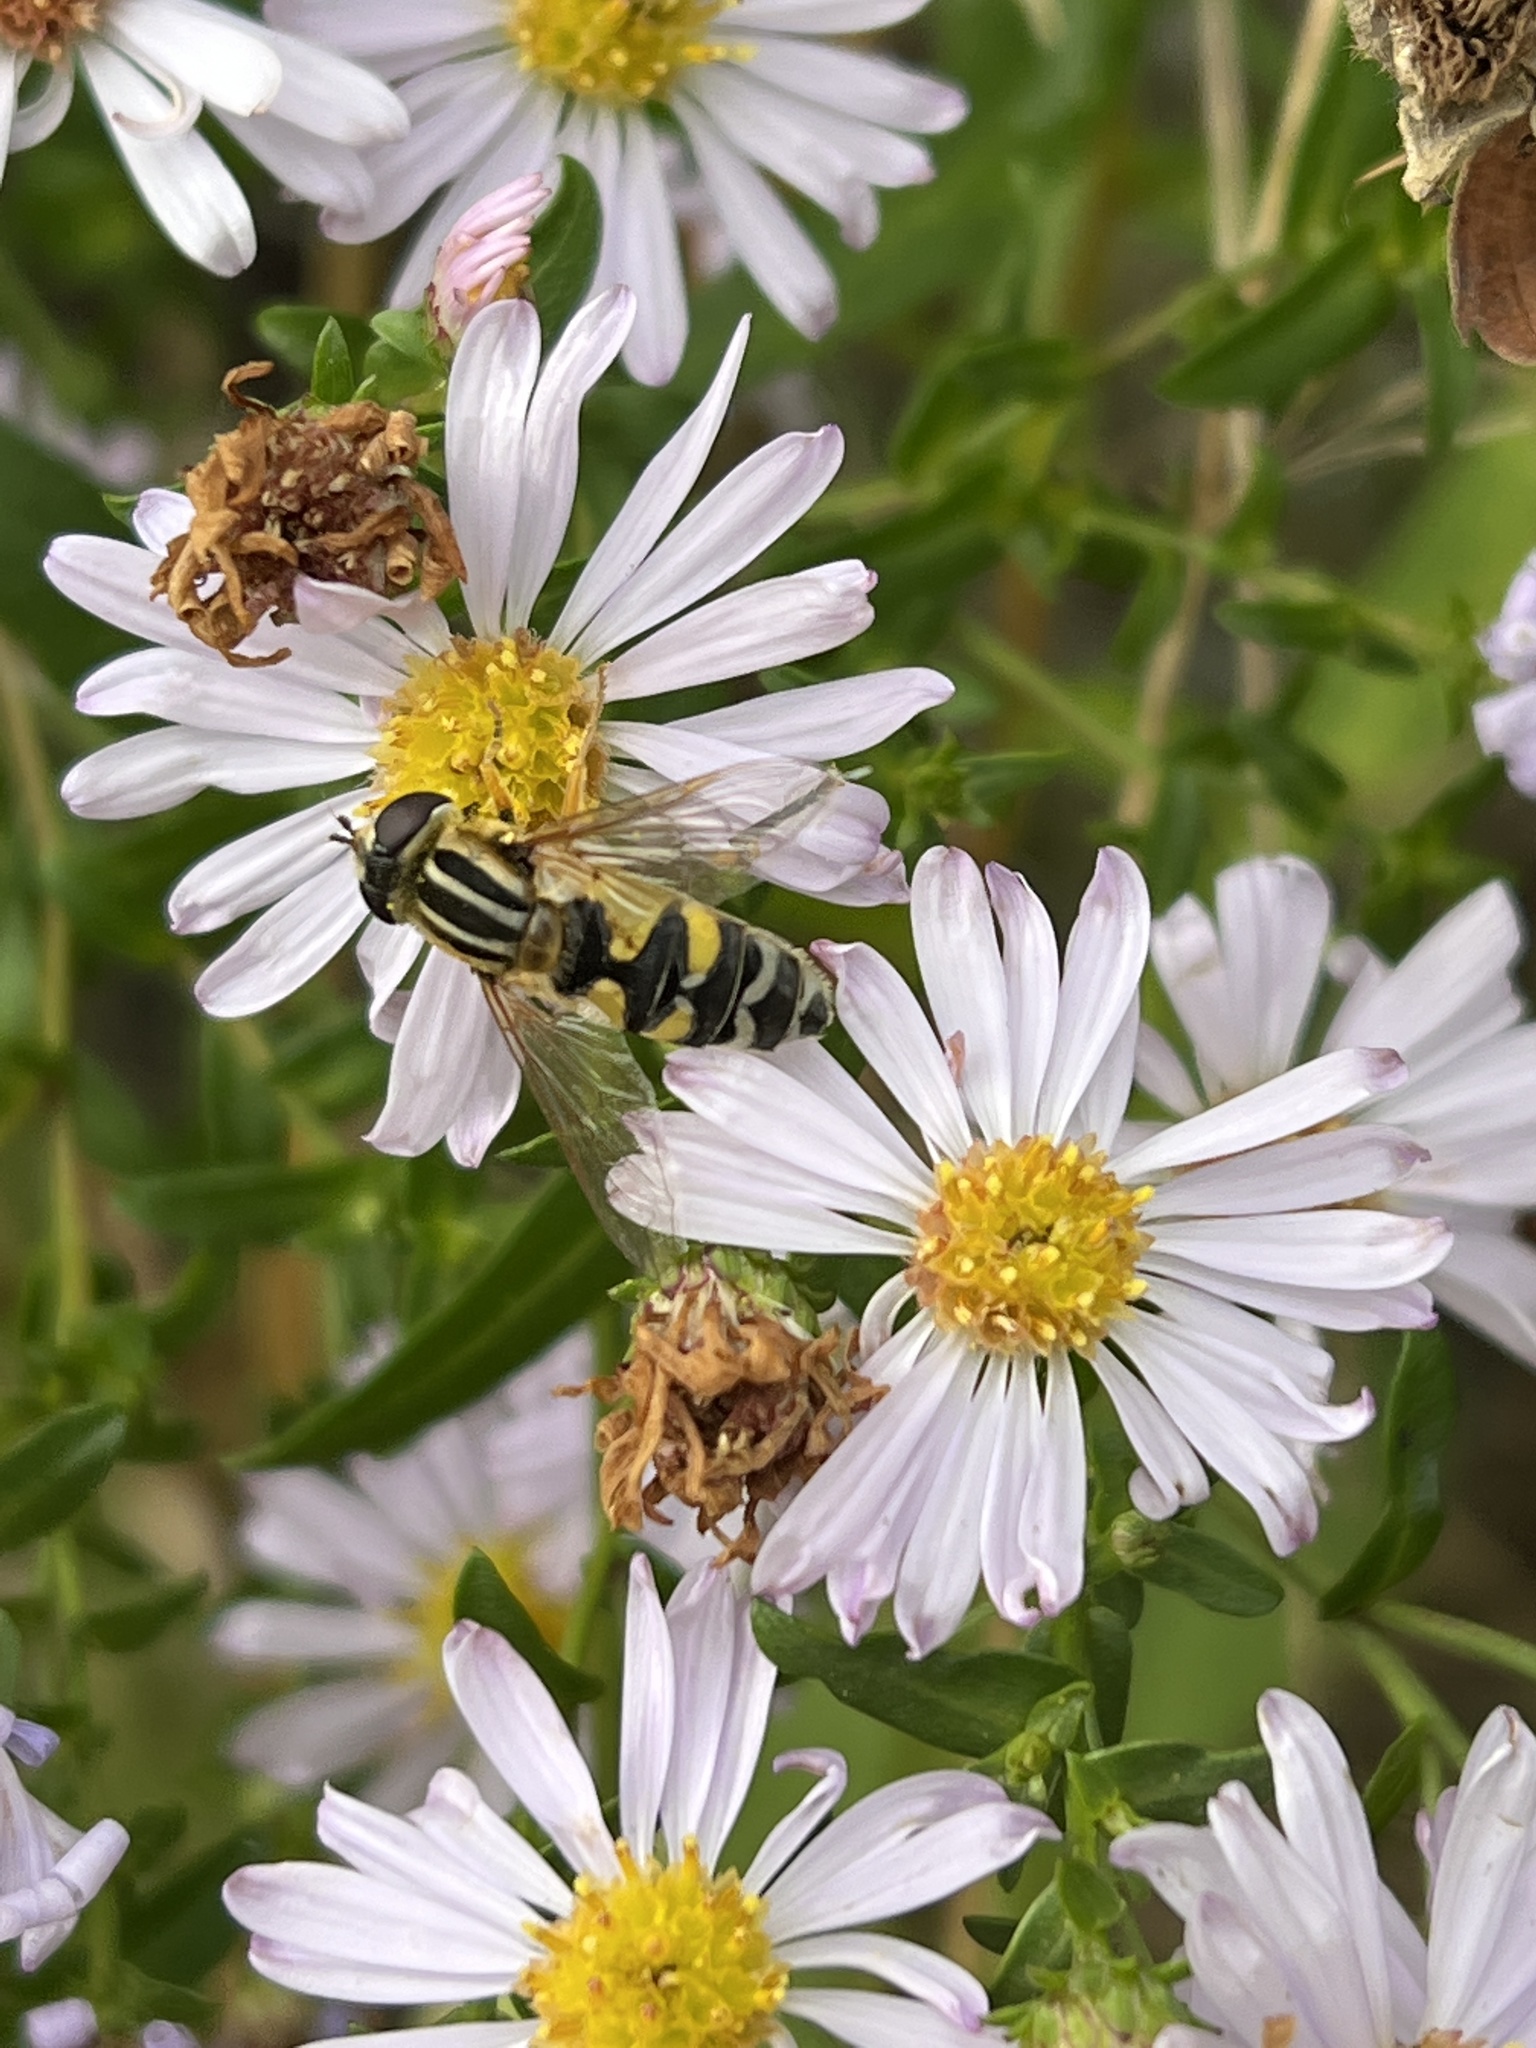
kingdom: Animalia
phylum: Arthropoda
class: Insecta
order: Diptera
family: Syrphidae
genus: Helophilus
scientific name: Helophilus trivittatus
